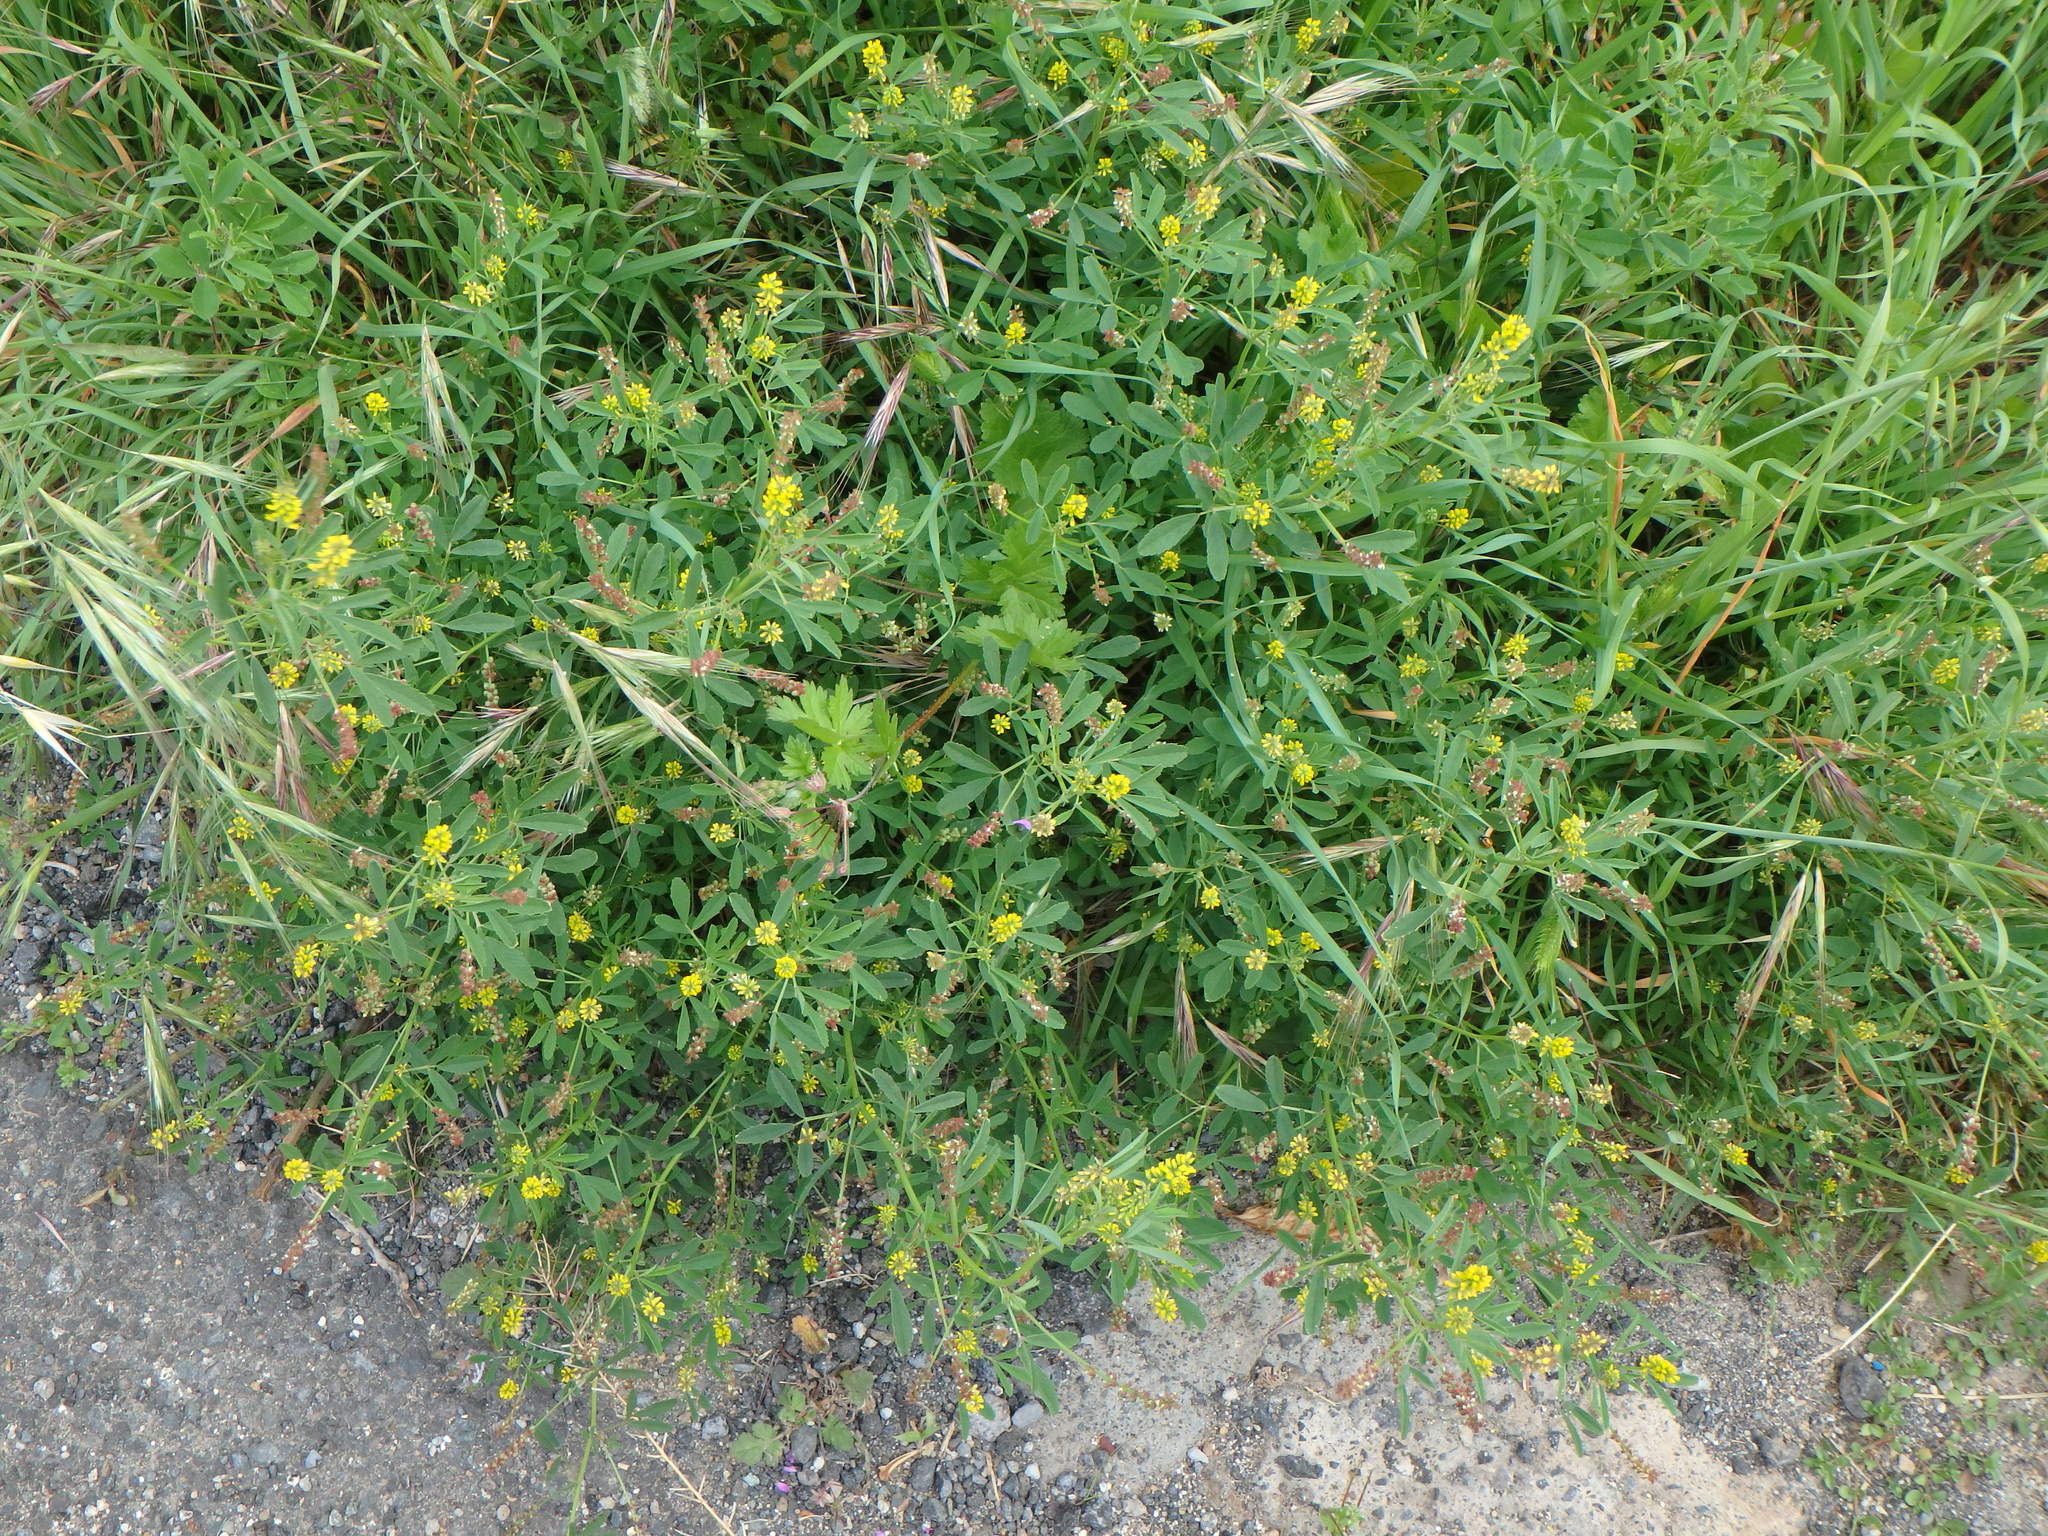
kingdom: Plantae
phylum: Tracheophyta
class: Magnoliopsida
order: Fabales
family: Fabaceae
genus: Melilotus
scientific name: Melilotus indicus
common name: Small melilot
